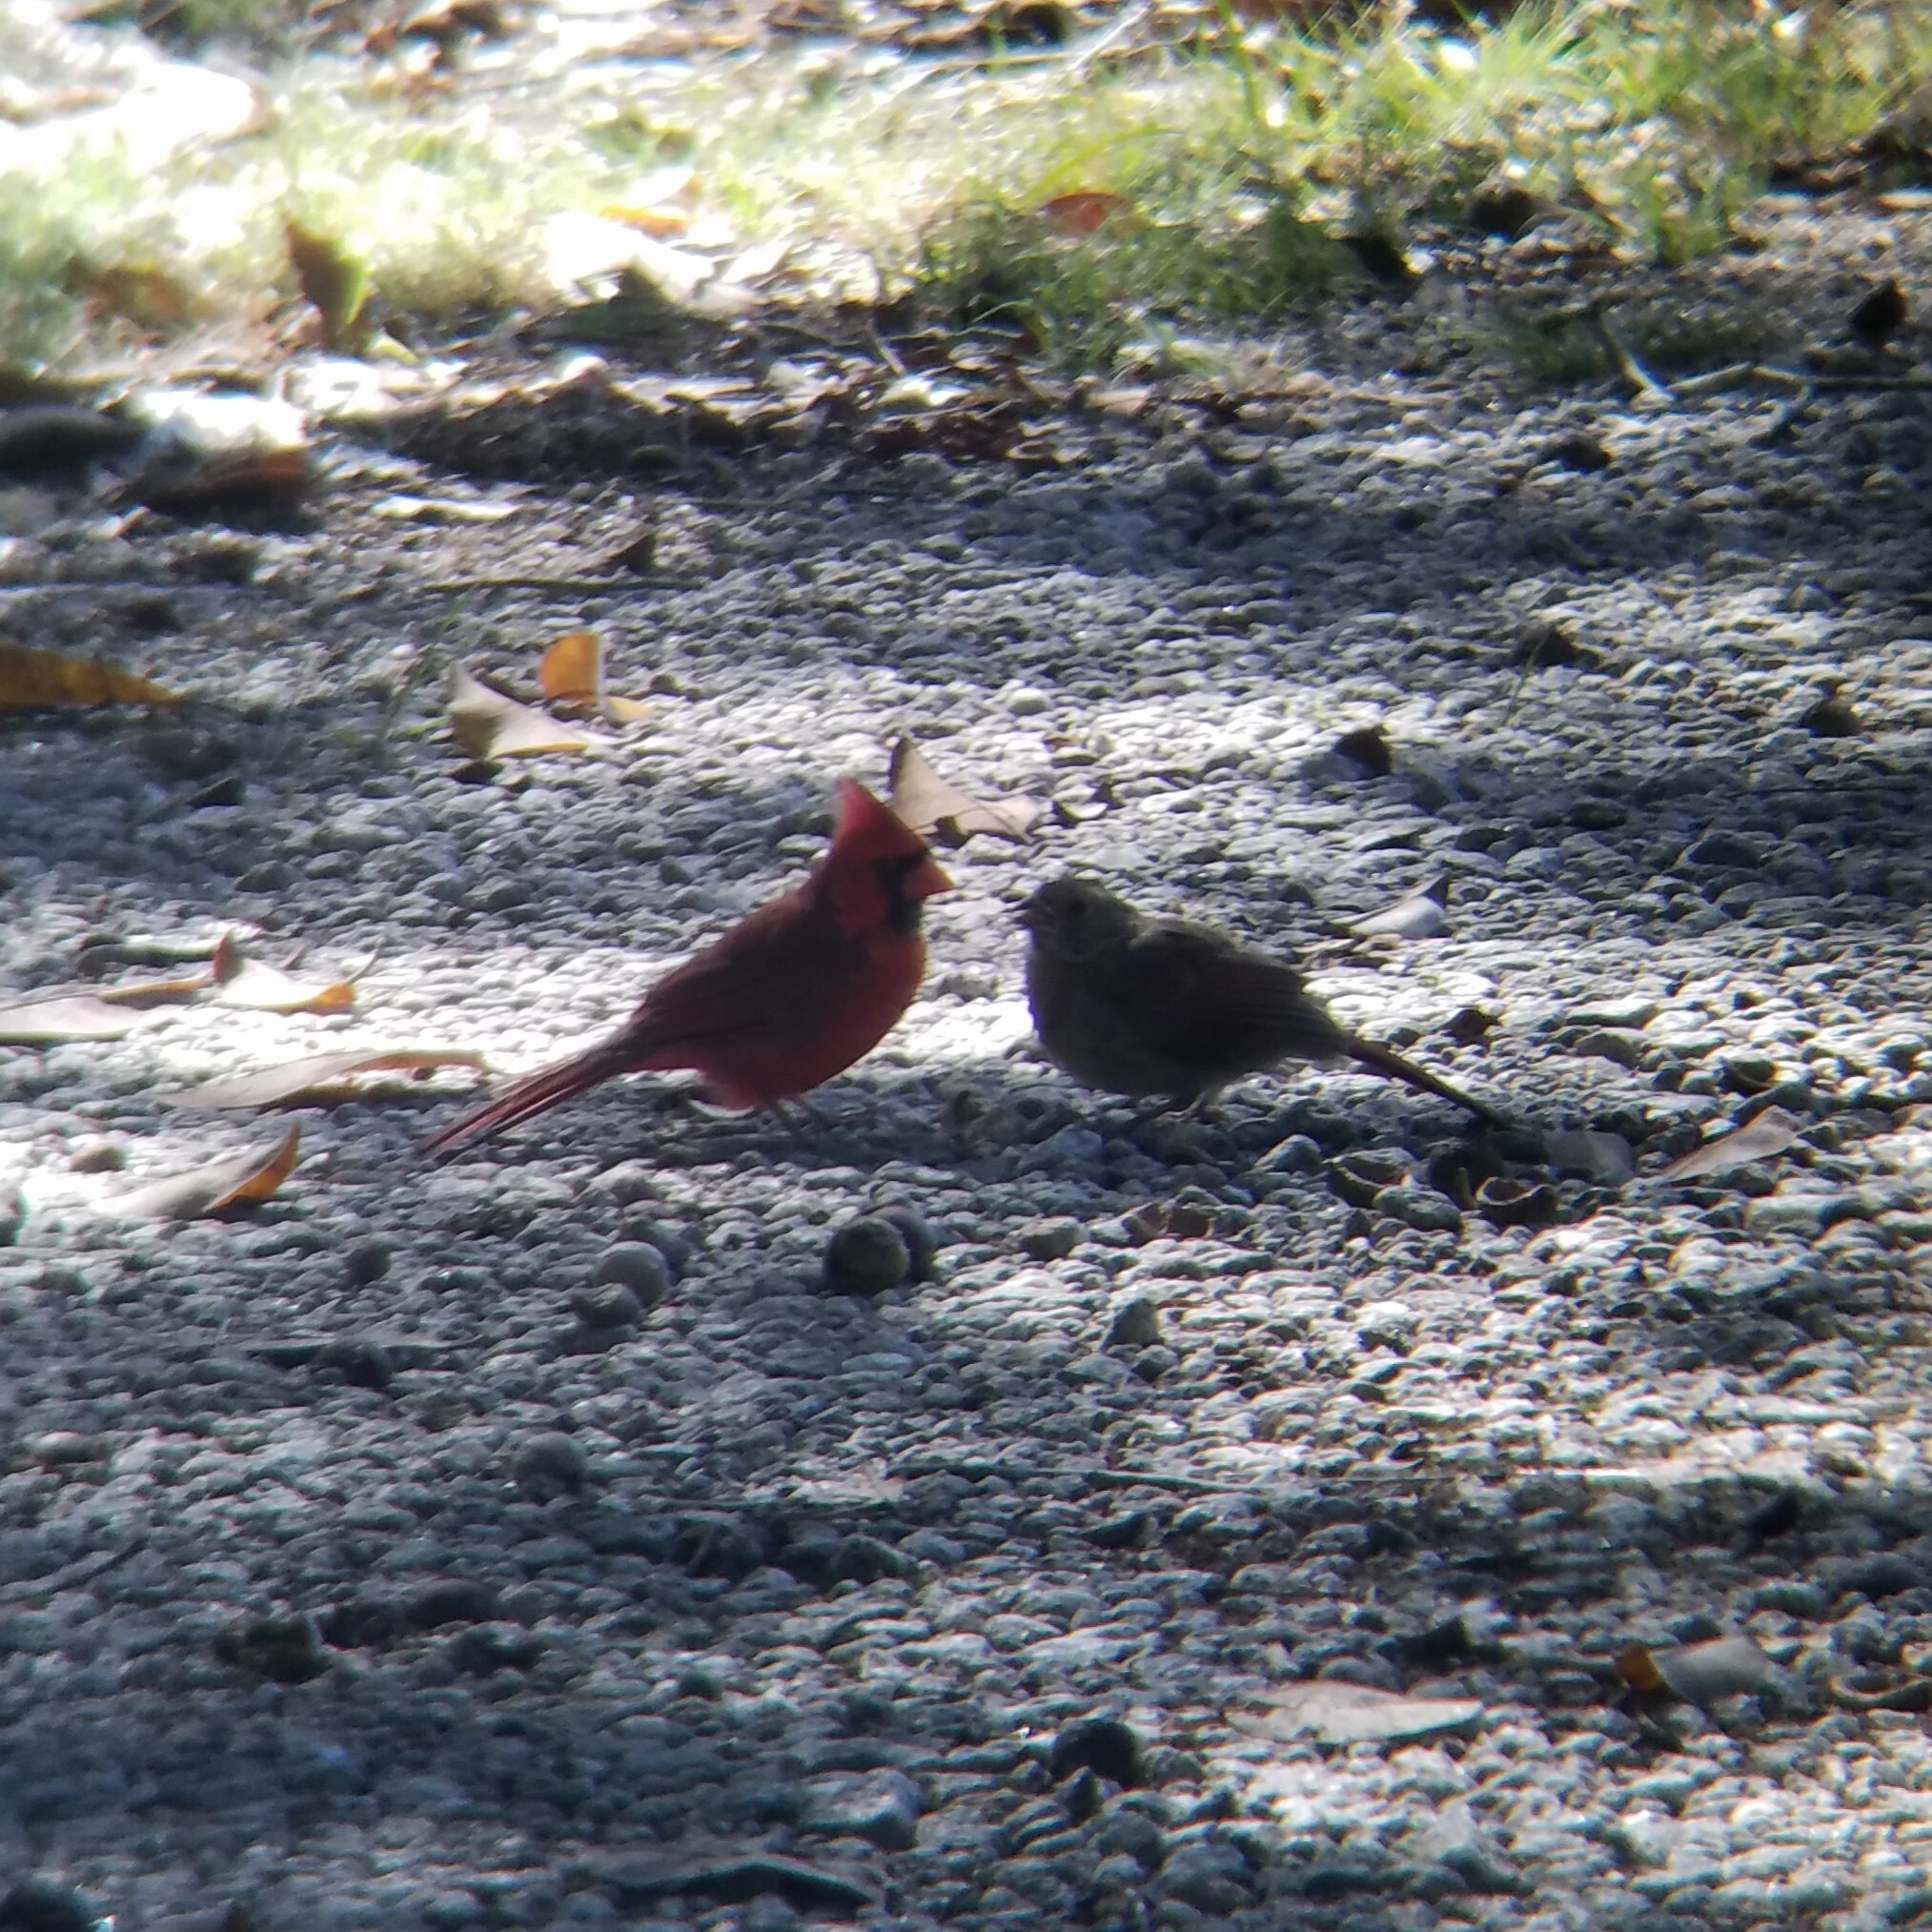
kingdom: Animalia
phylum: Chordata
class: Aves
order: Passeriformes
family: Cardinalidae
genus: Cardinalis
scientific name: Cardinalis cardinalis
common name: Northern cardinal
